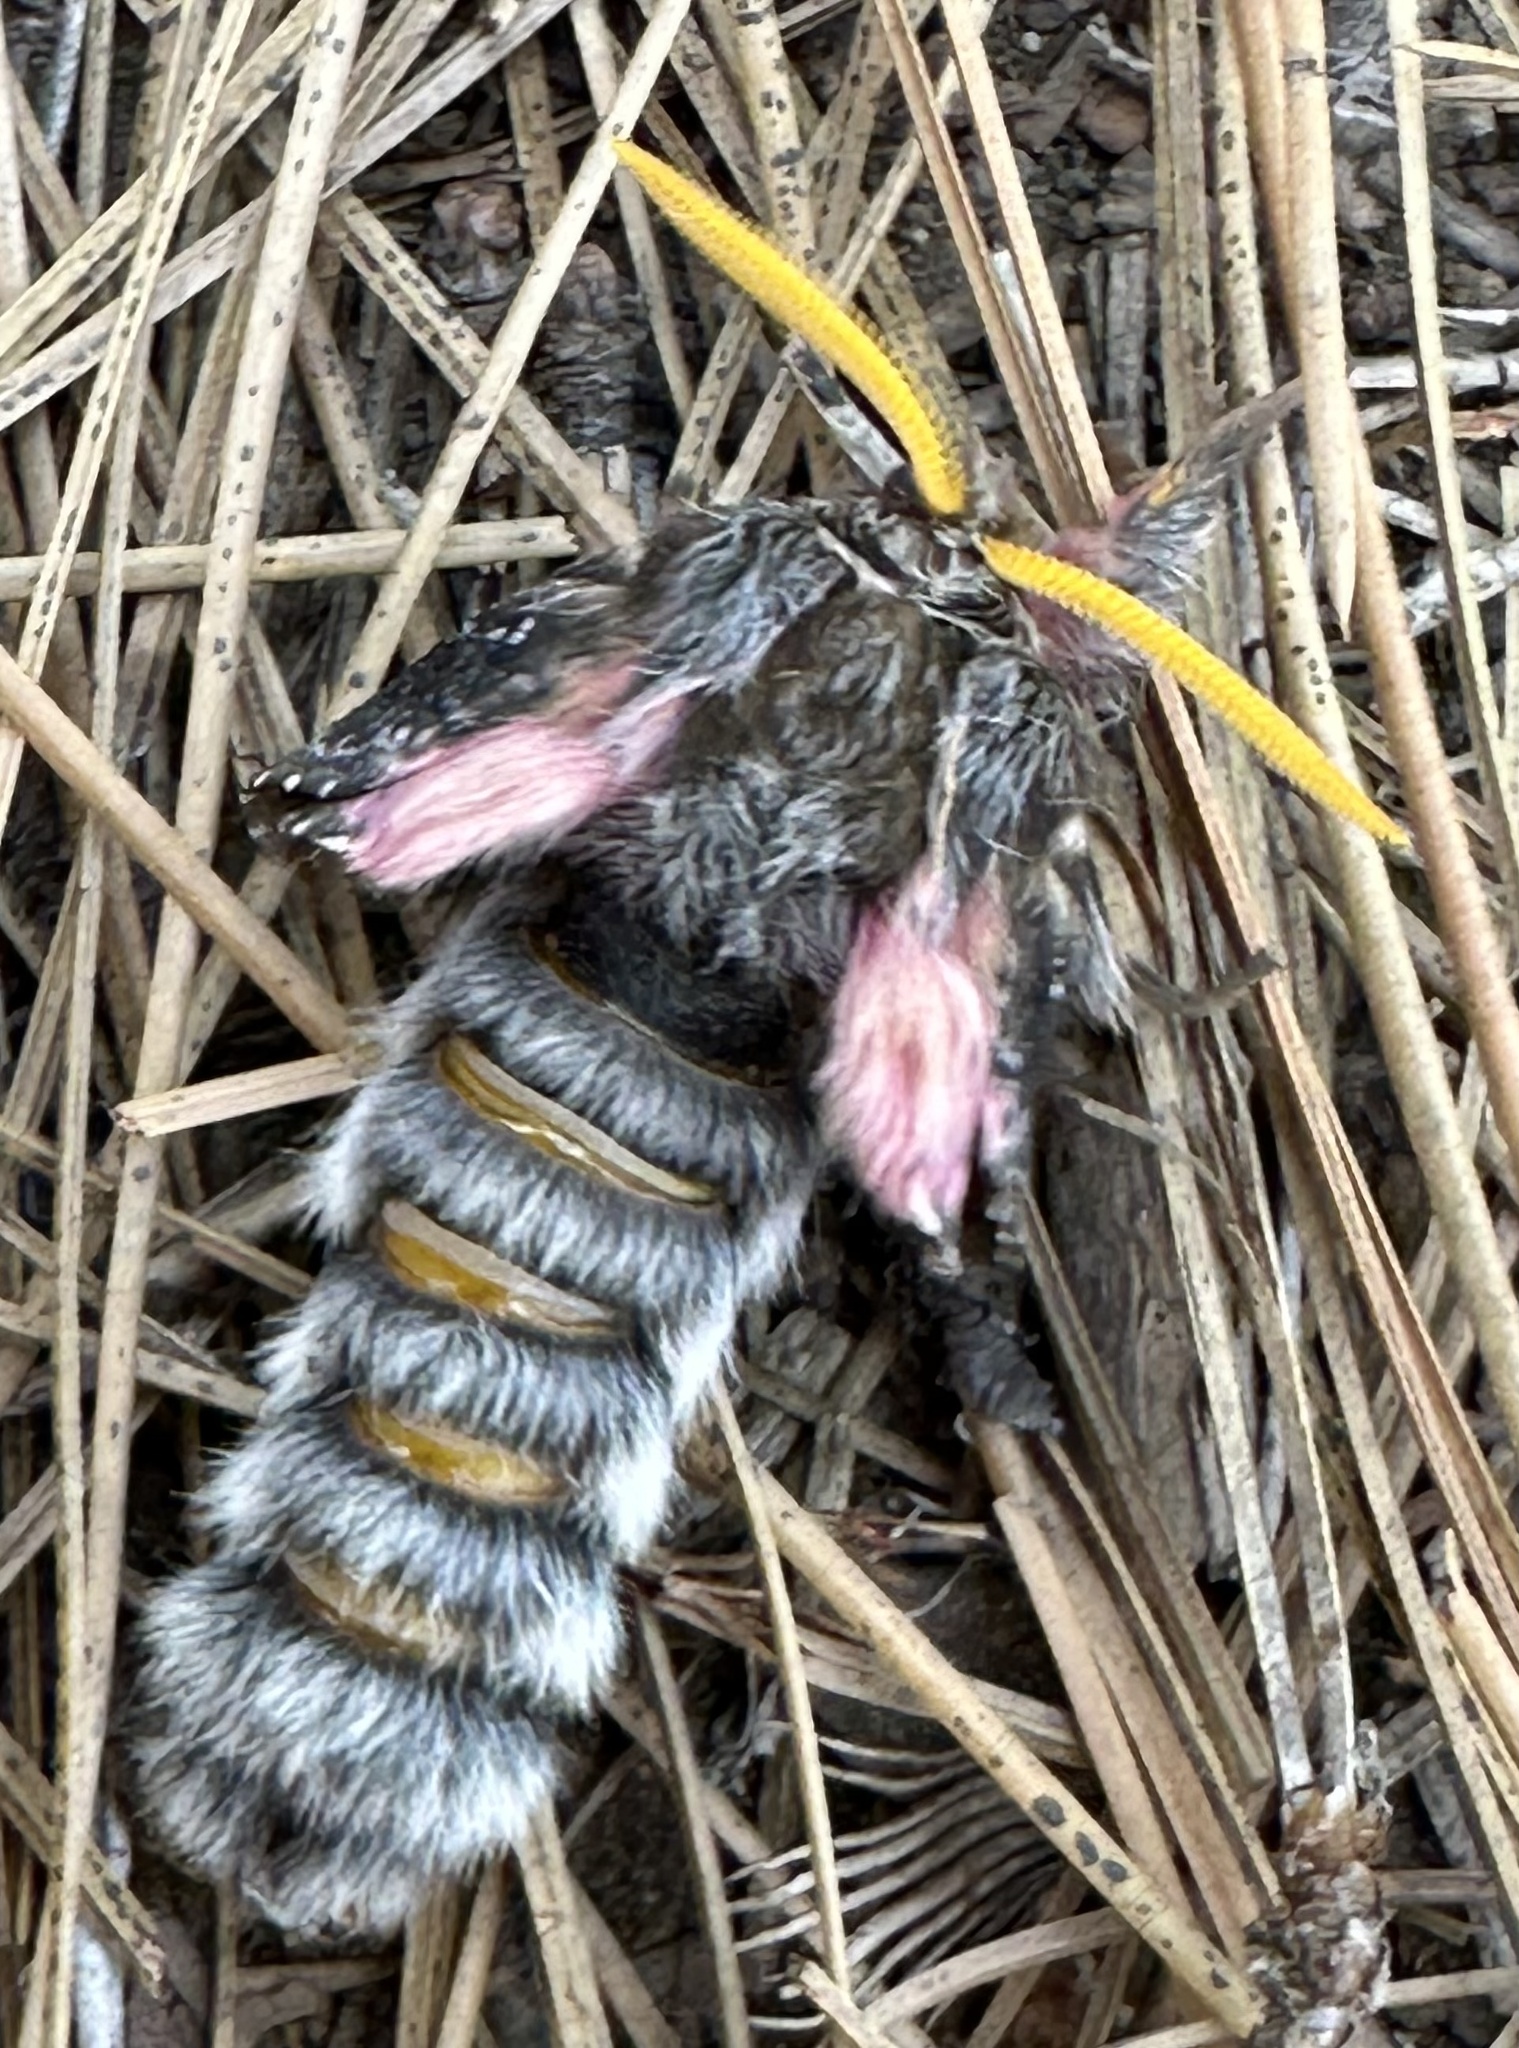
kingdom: Animalia
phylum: Arthropoda
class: Insecta
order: Lepidoptera
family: Saturniidae
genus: Coloradia
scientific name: Coloradia pandora
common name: Pandora pinemoth
